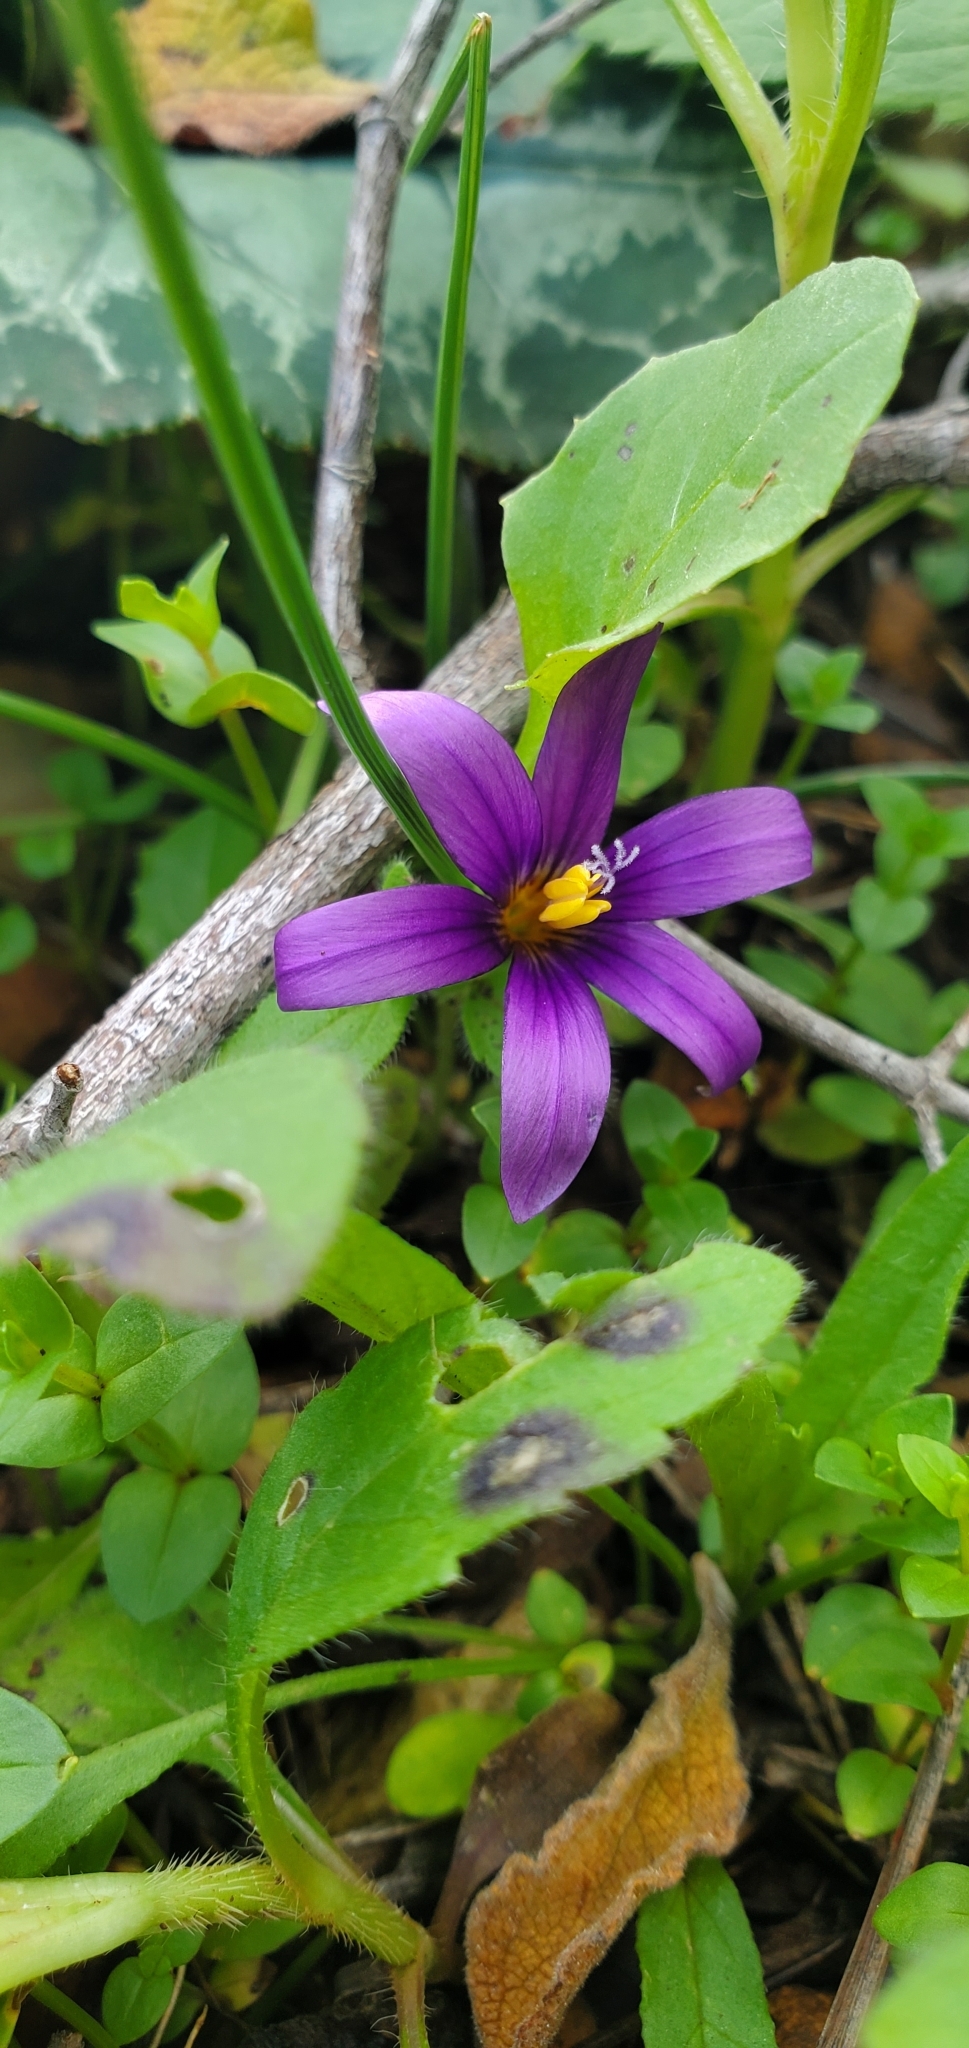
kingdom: Plantae
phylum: Tracheophyta
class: Liliopsida
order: Asparagales
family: Iridaceae
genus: Romulea
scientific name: Romulea tempskyana
